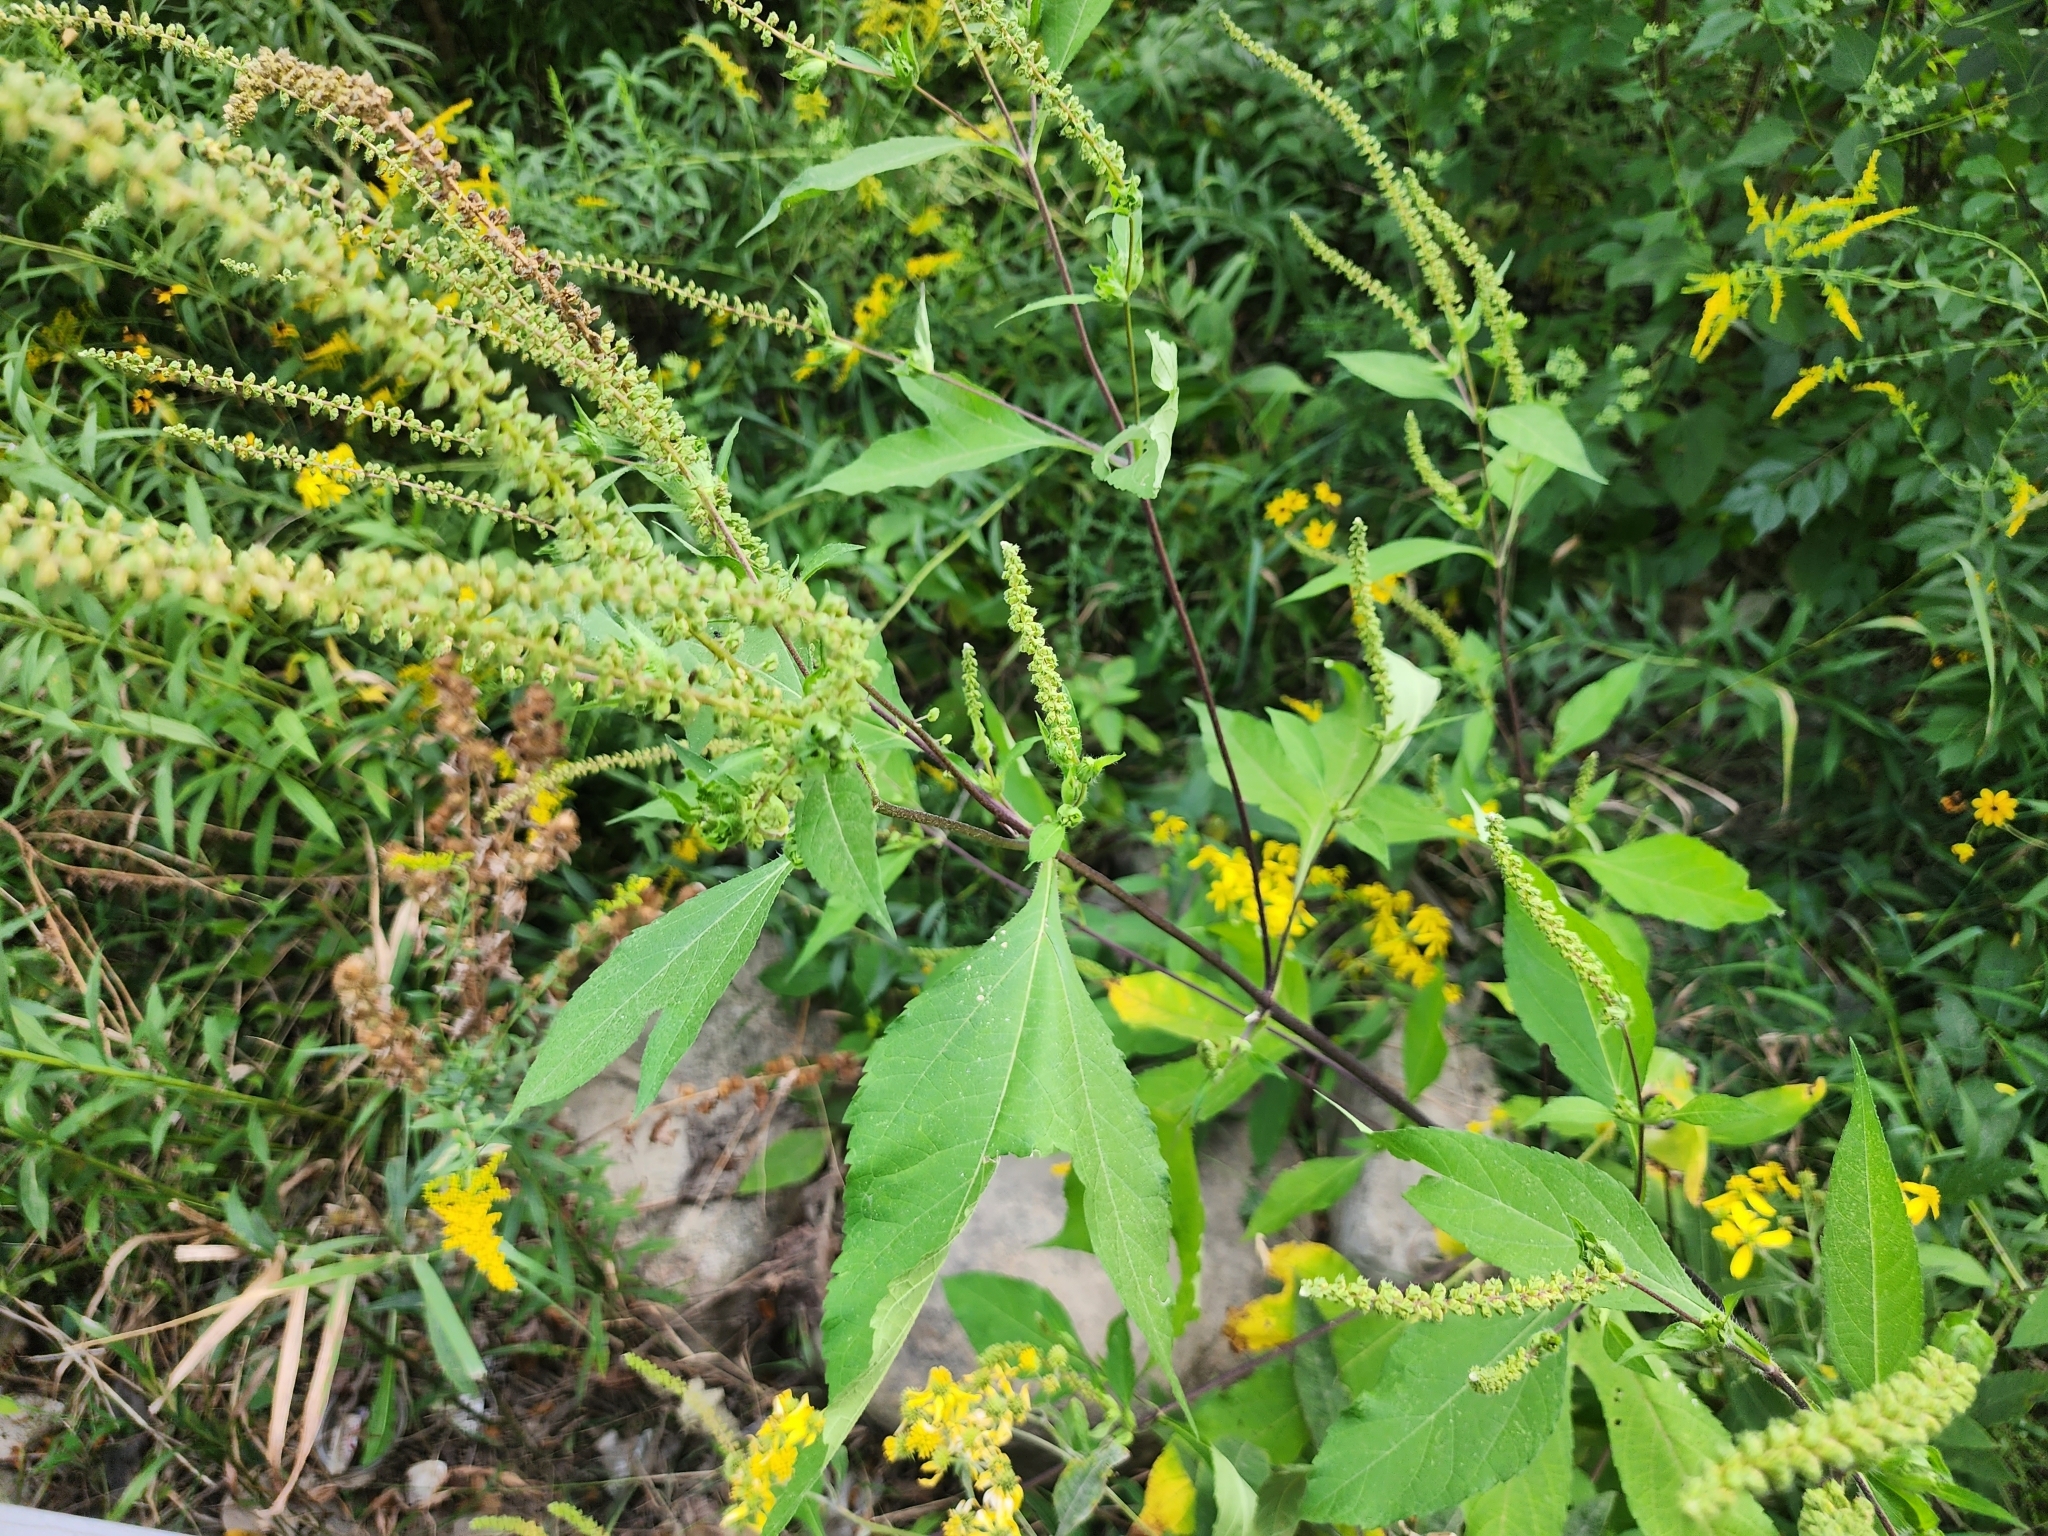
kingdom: Plantae
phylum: Tracheophyta
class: Magnoliopsida
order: Asterales
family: Asteraceae
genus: Ambrosia
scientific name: Ambrosia trifida
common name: Giant ragweed
